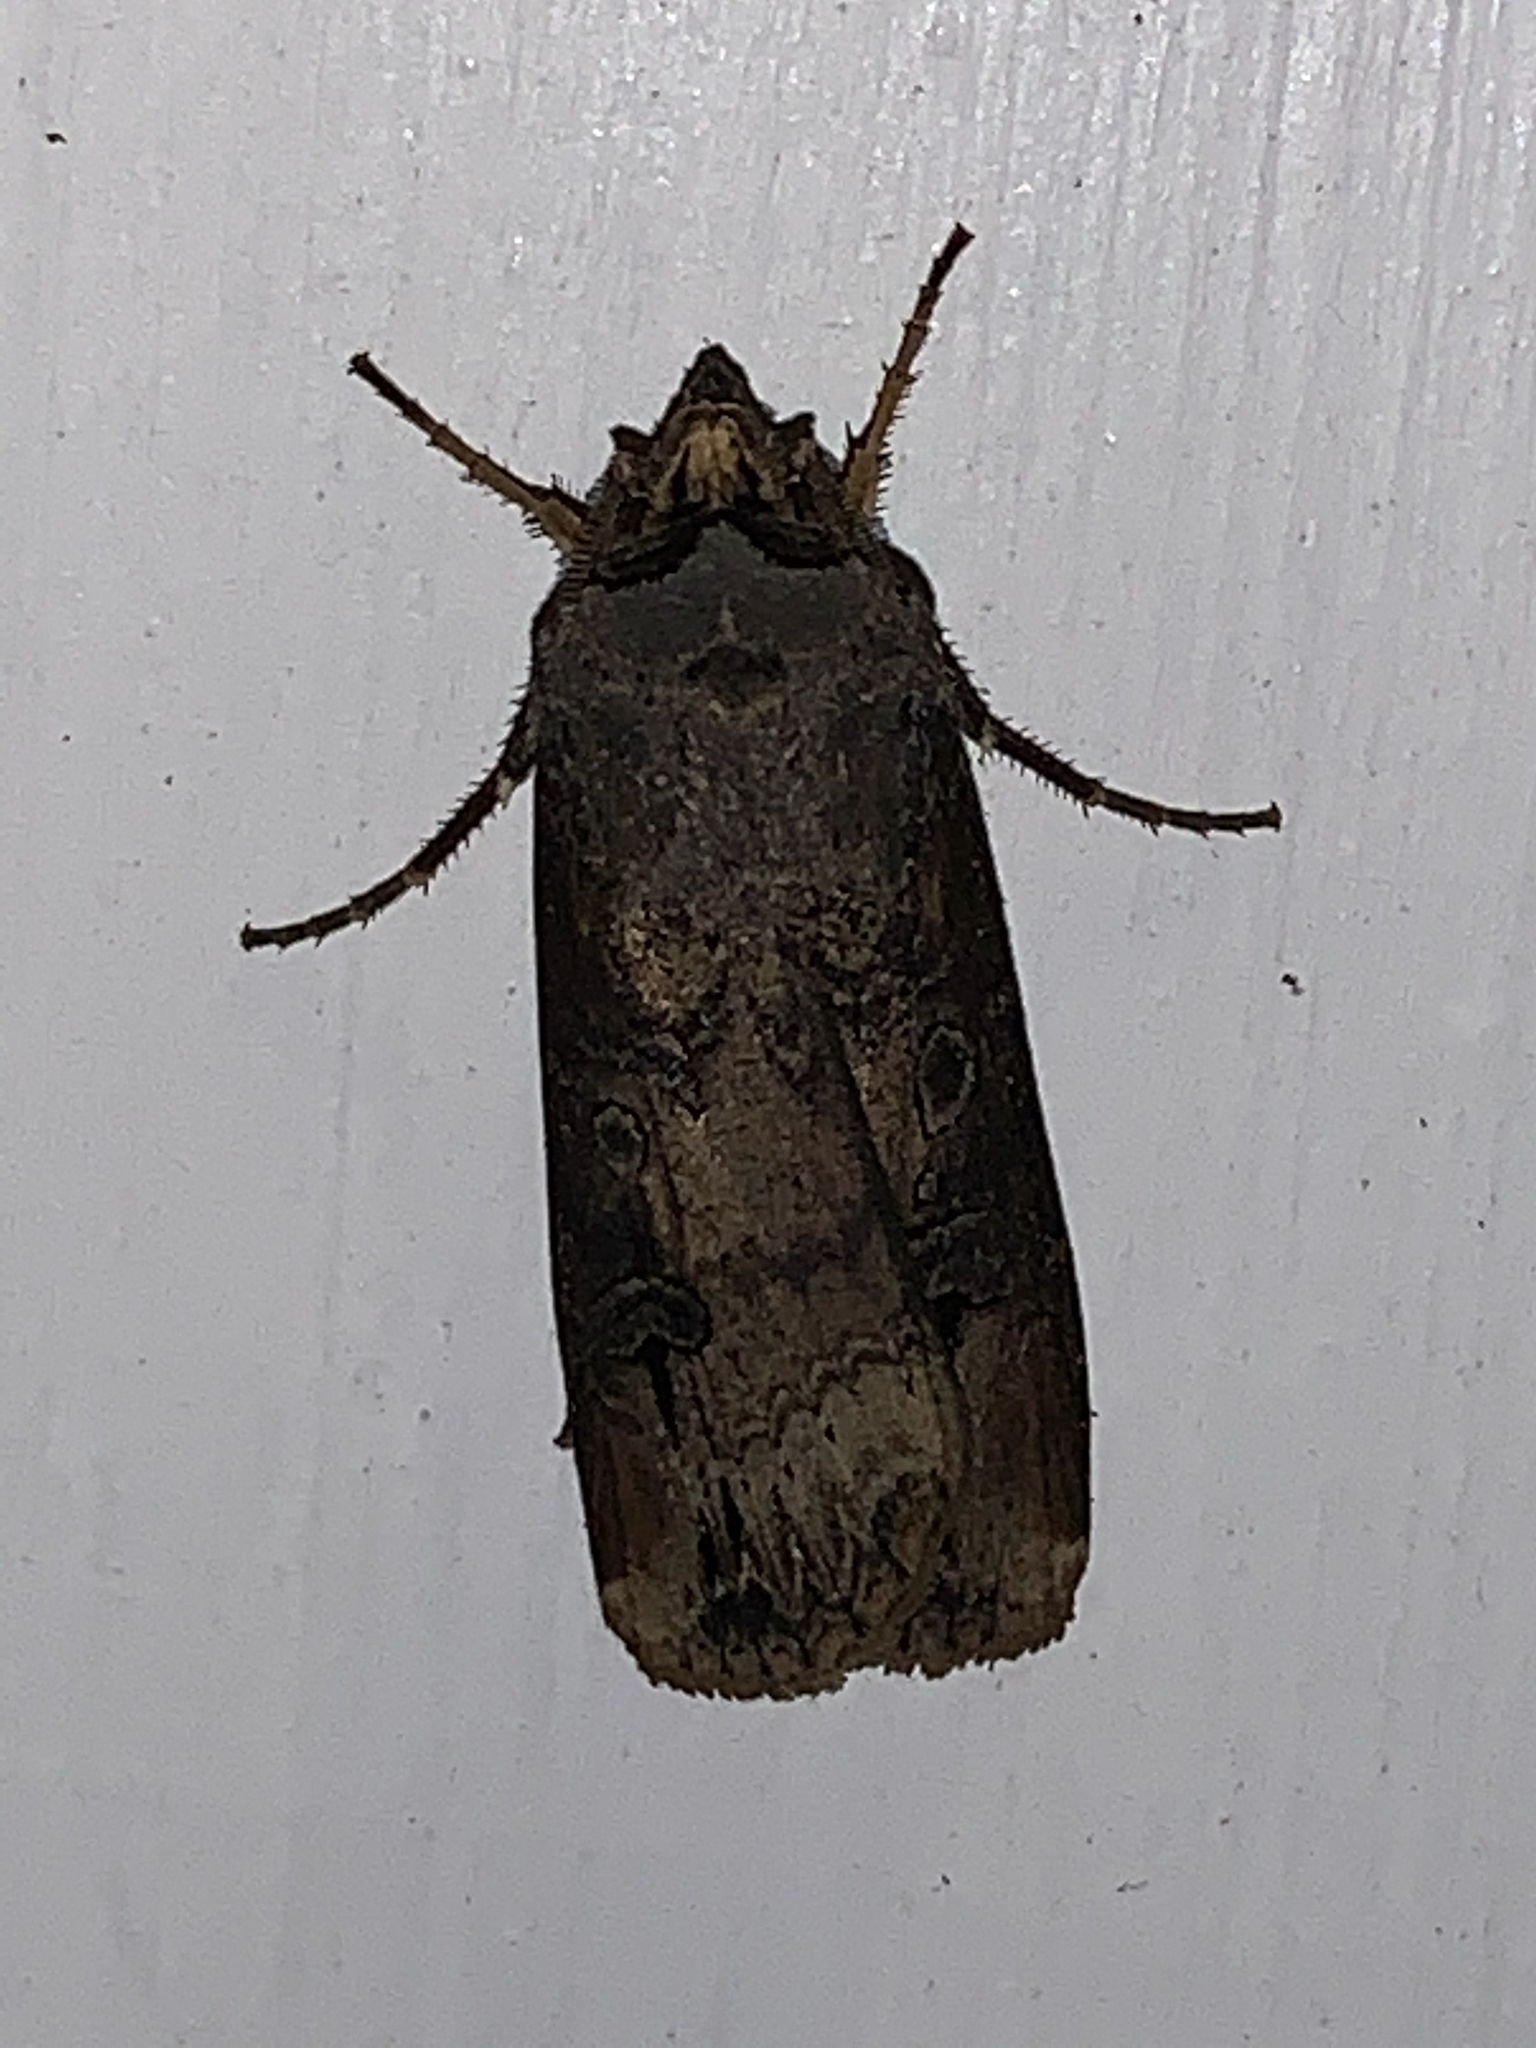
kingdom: Animalia
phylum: Arthropoda
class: Insecta
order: Lepidoptera
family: Noctuidae
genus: Agrotis
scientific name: Agrotis ipsilon
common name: Dark sword-grass
